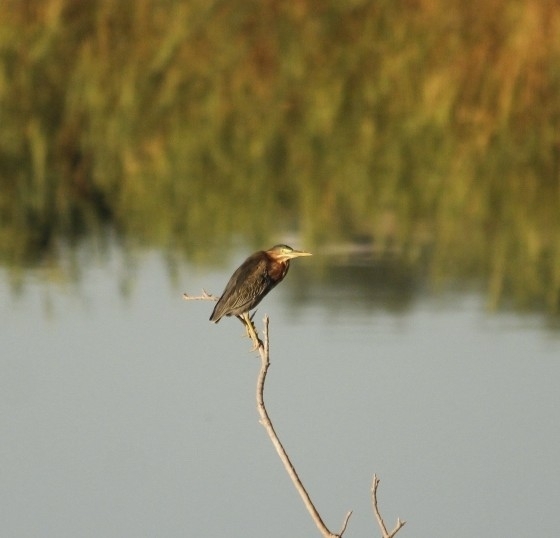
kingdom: Animalia
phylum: Chordata
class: Aves
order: Pelecaniformes
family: Ardeidae
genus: Butorides
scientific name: Butorides virescens
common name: Green heron
